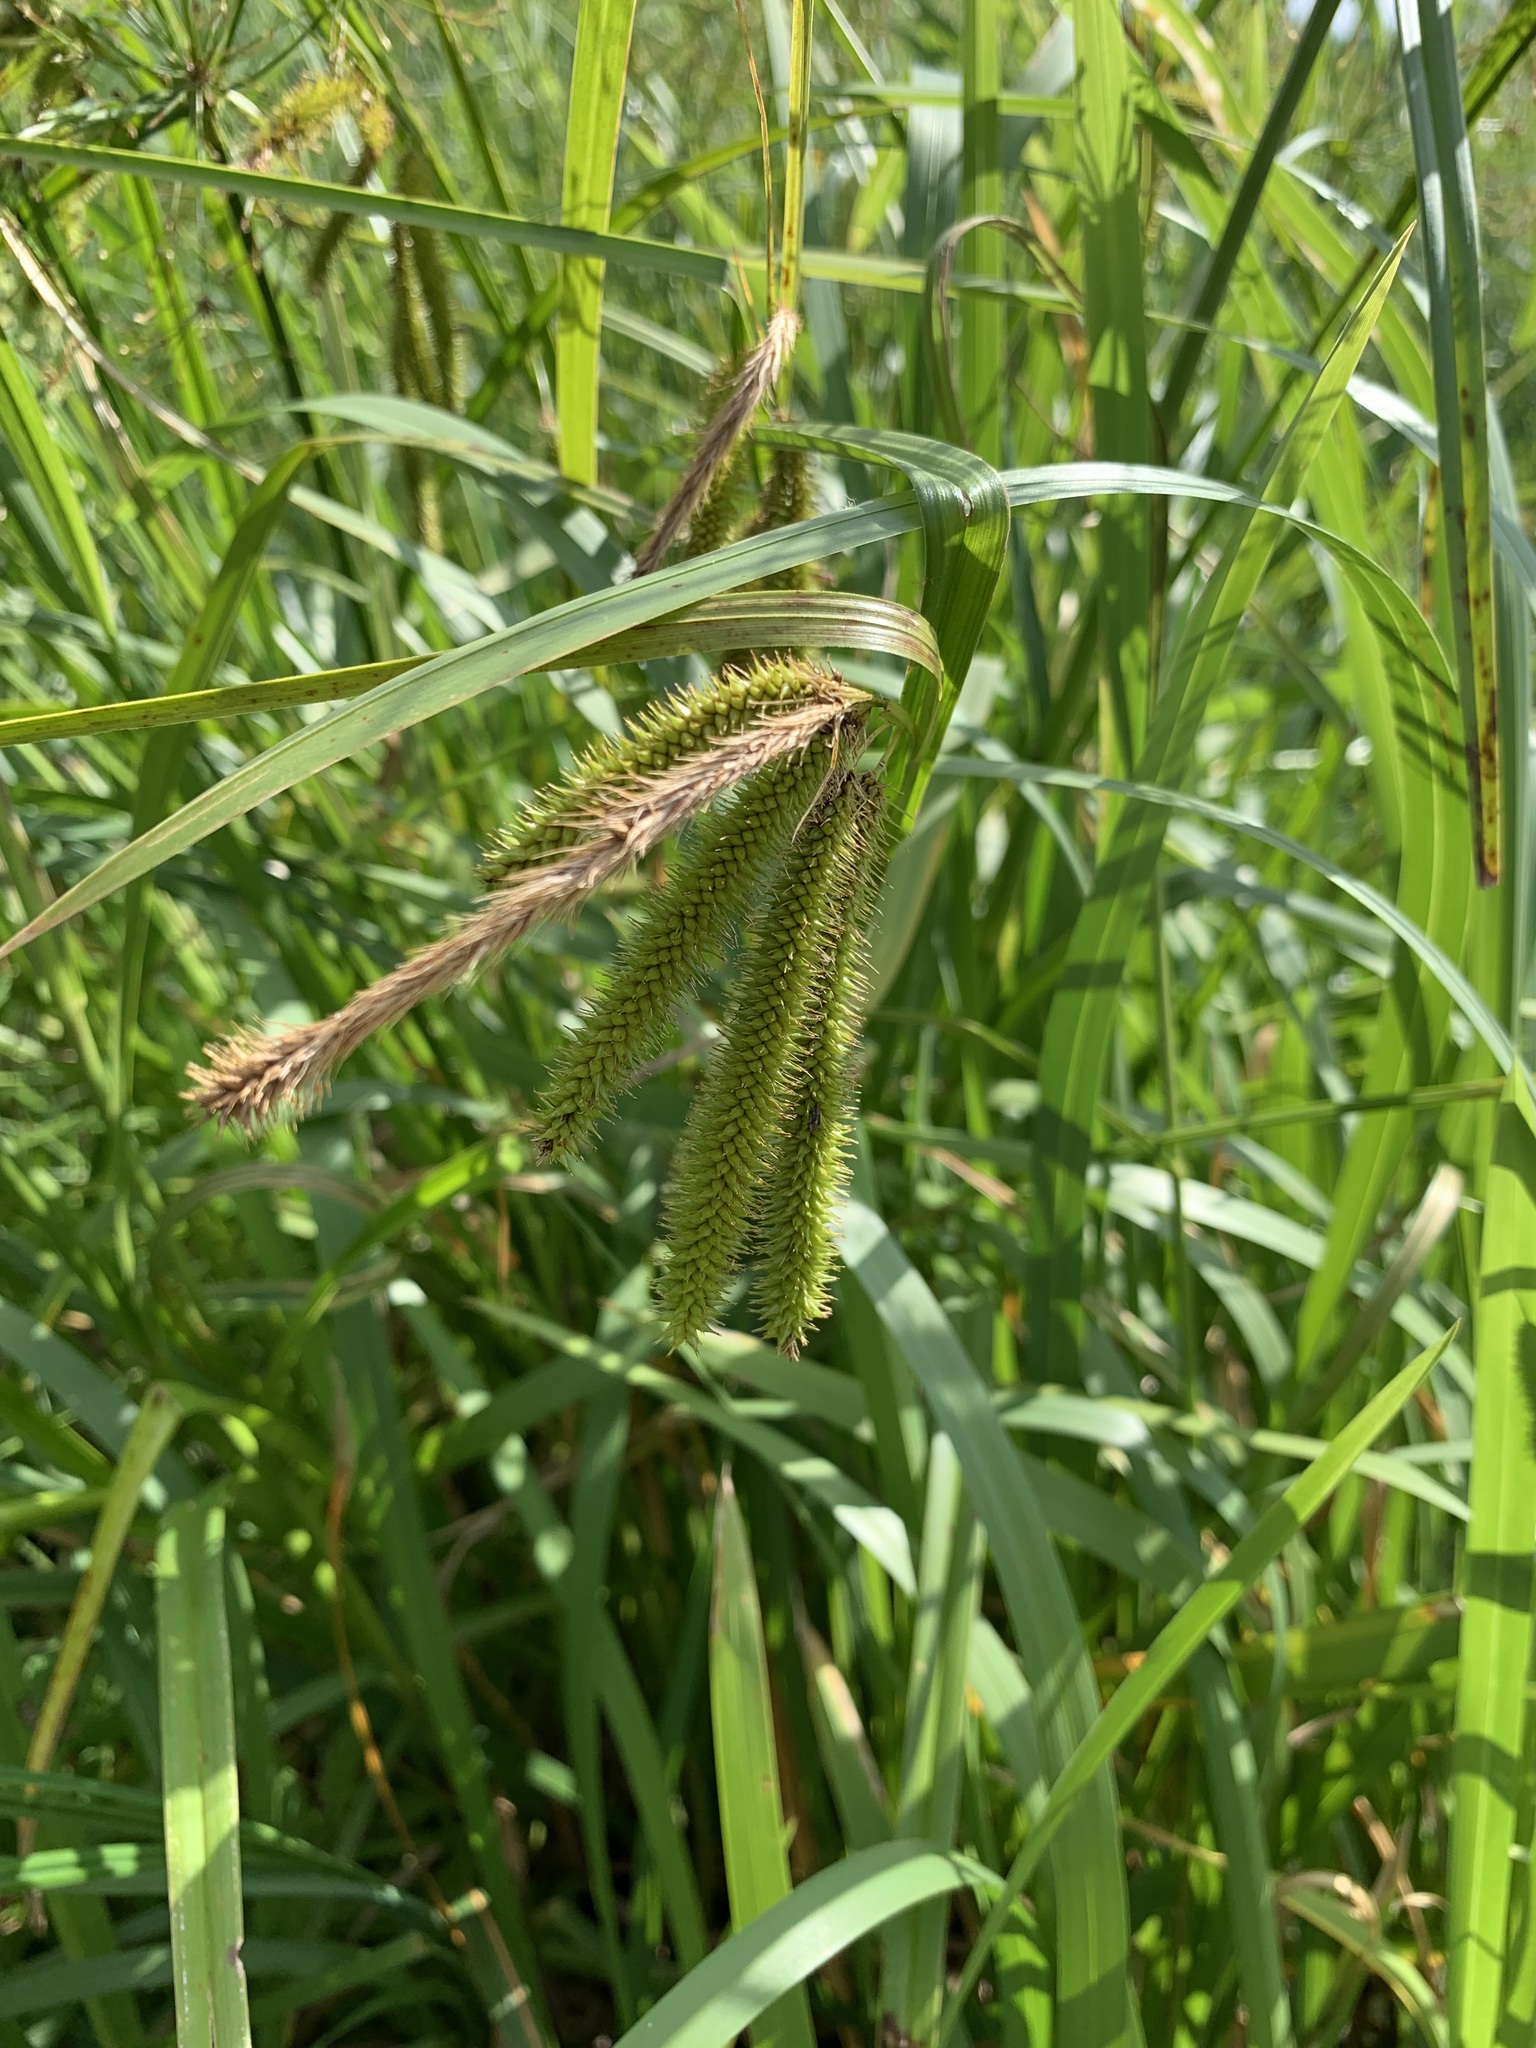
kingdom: Plantae
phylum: Tracheophyta
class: Liliopsida
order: Poales
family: Cyperaceae
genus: Carex
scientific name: Carex pseudocyperus
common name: Cyperus sedge
